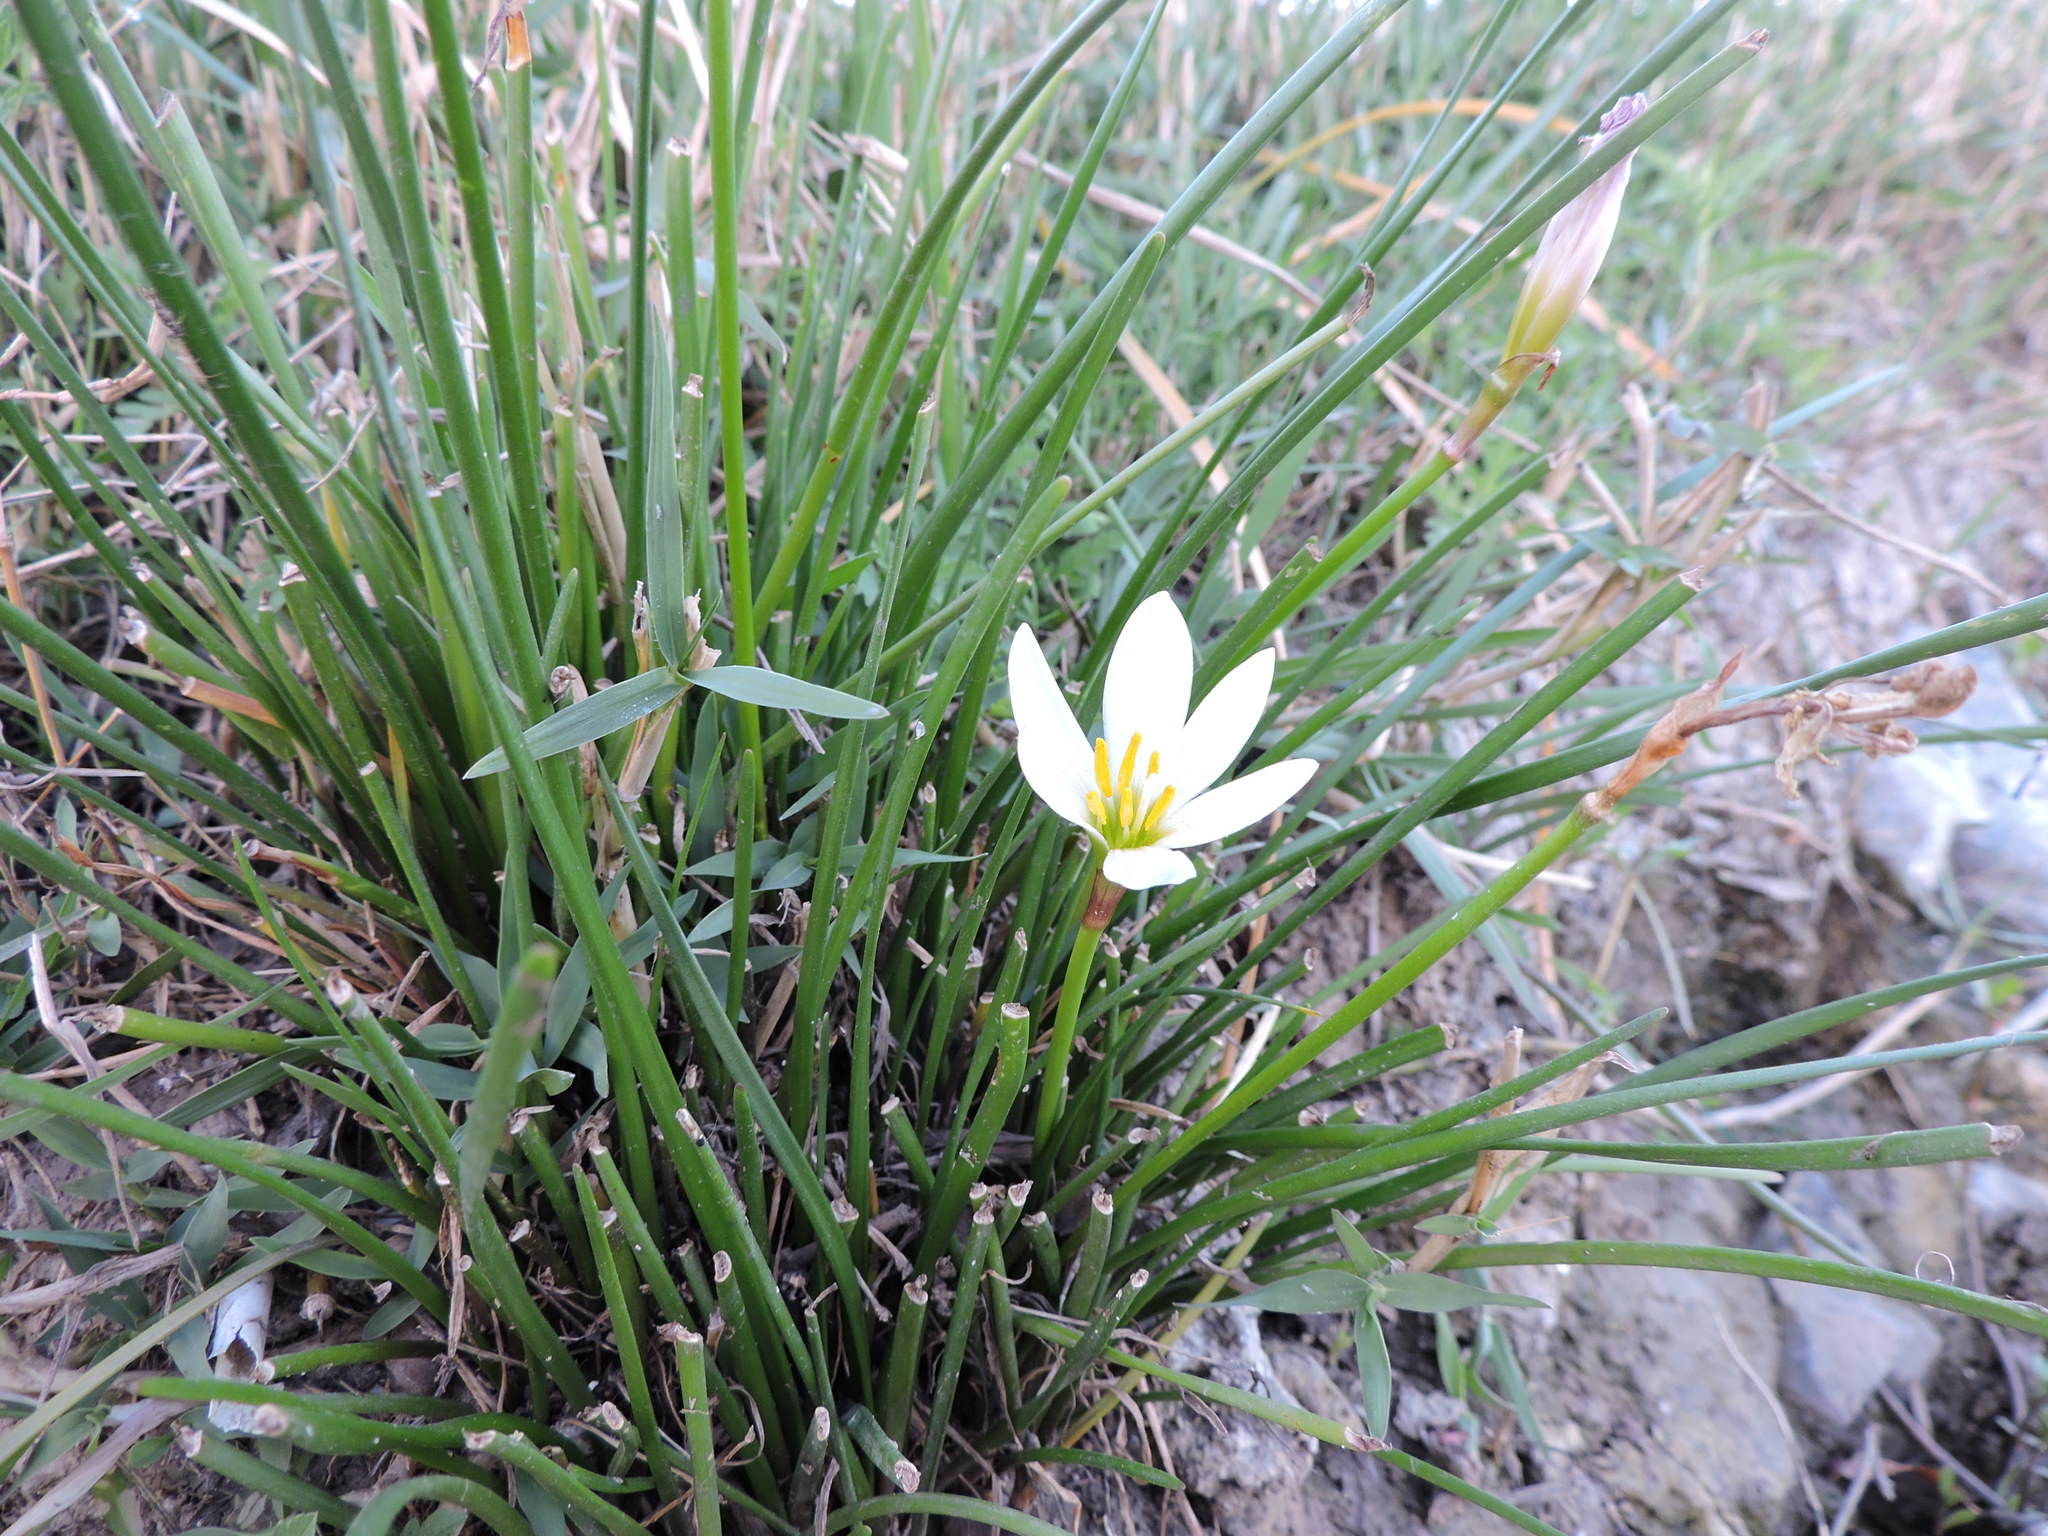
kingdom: Plantae
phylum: Tracheophyta
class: Liliopsida
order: Asparagales
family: Amaryllidaceae
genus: Zephyranthes
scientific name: Zephyranthes candida
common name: Autumn zephyrlily
